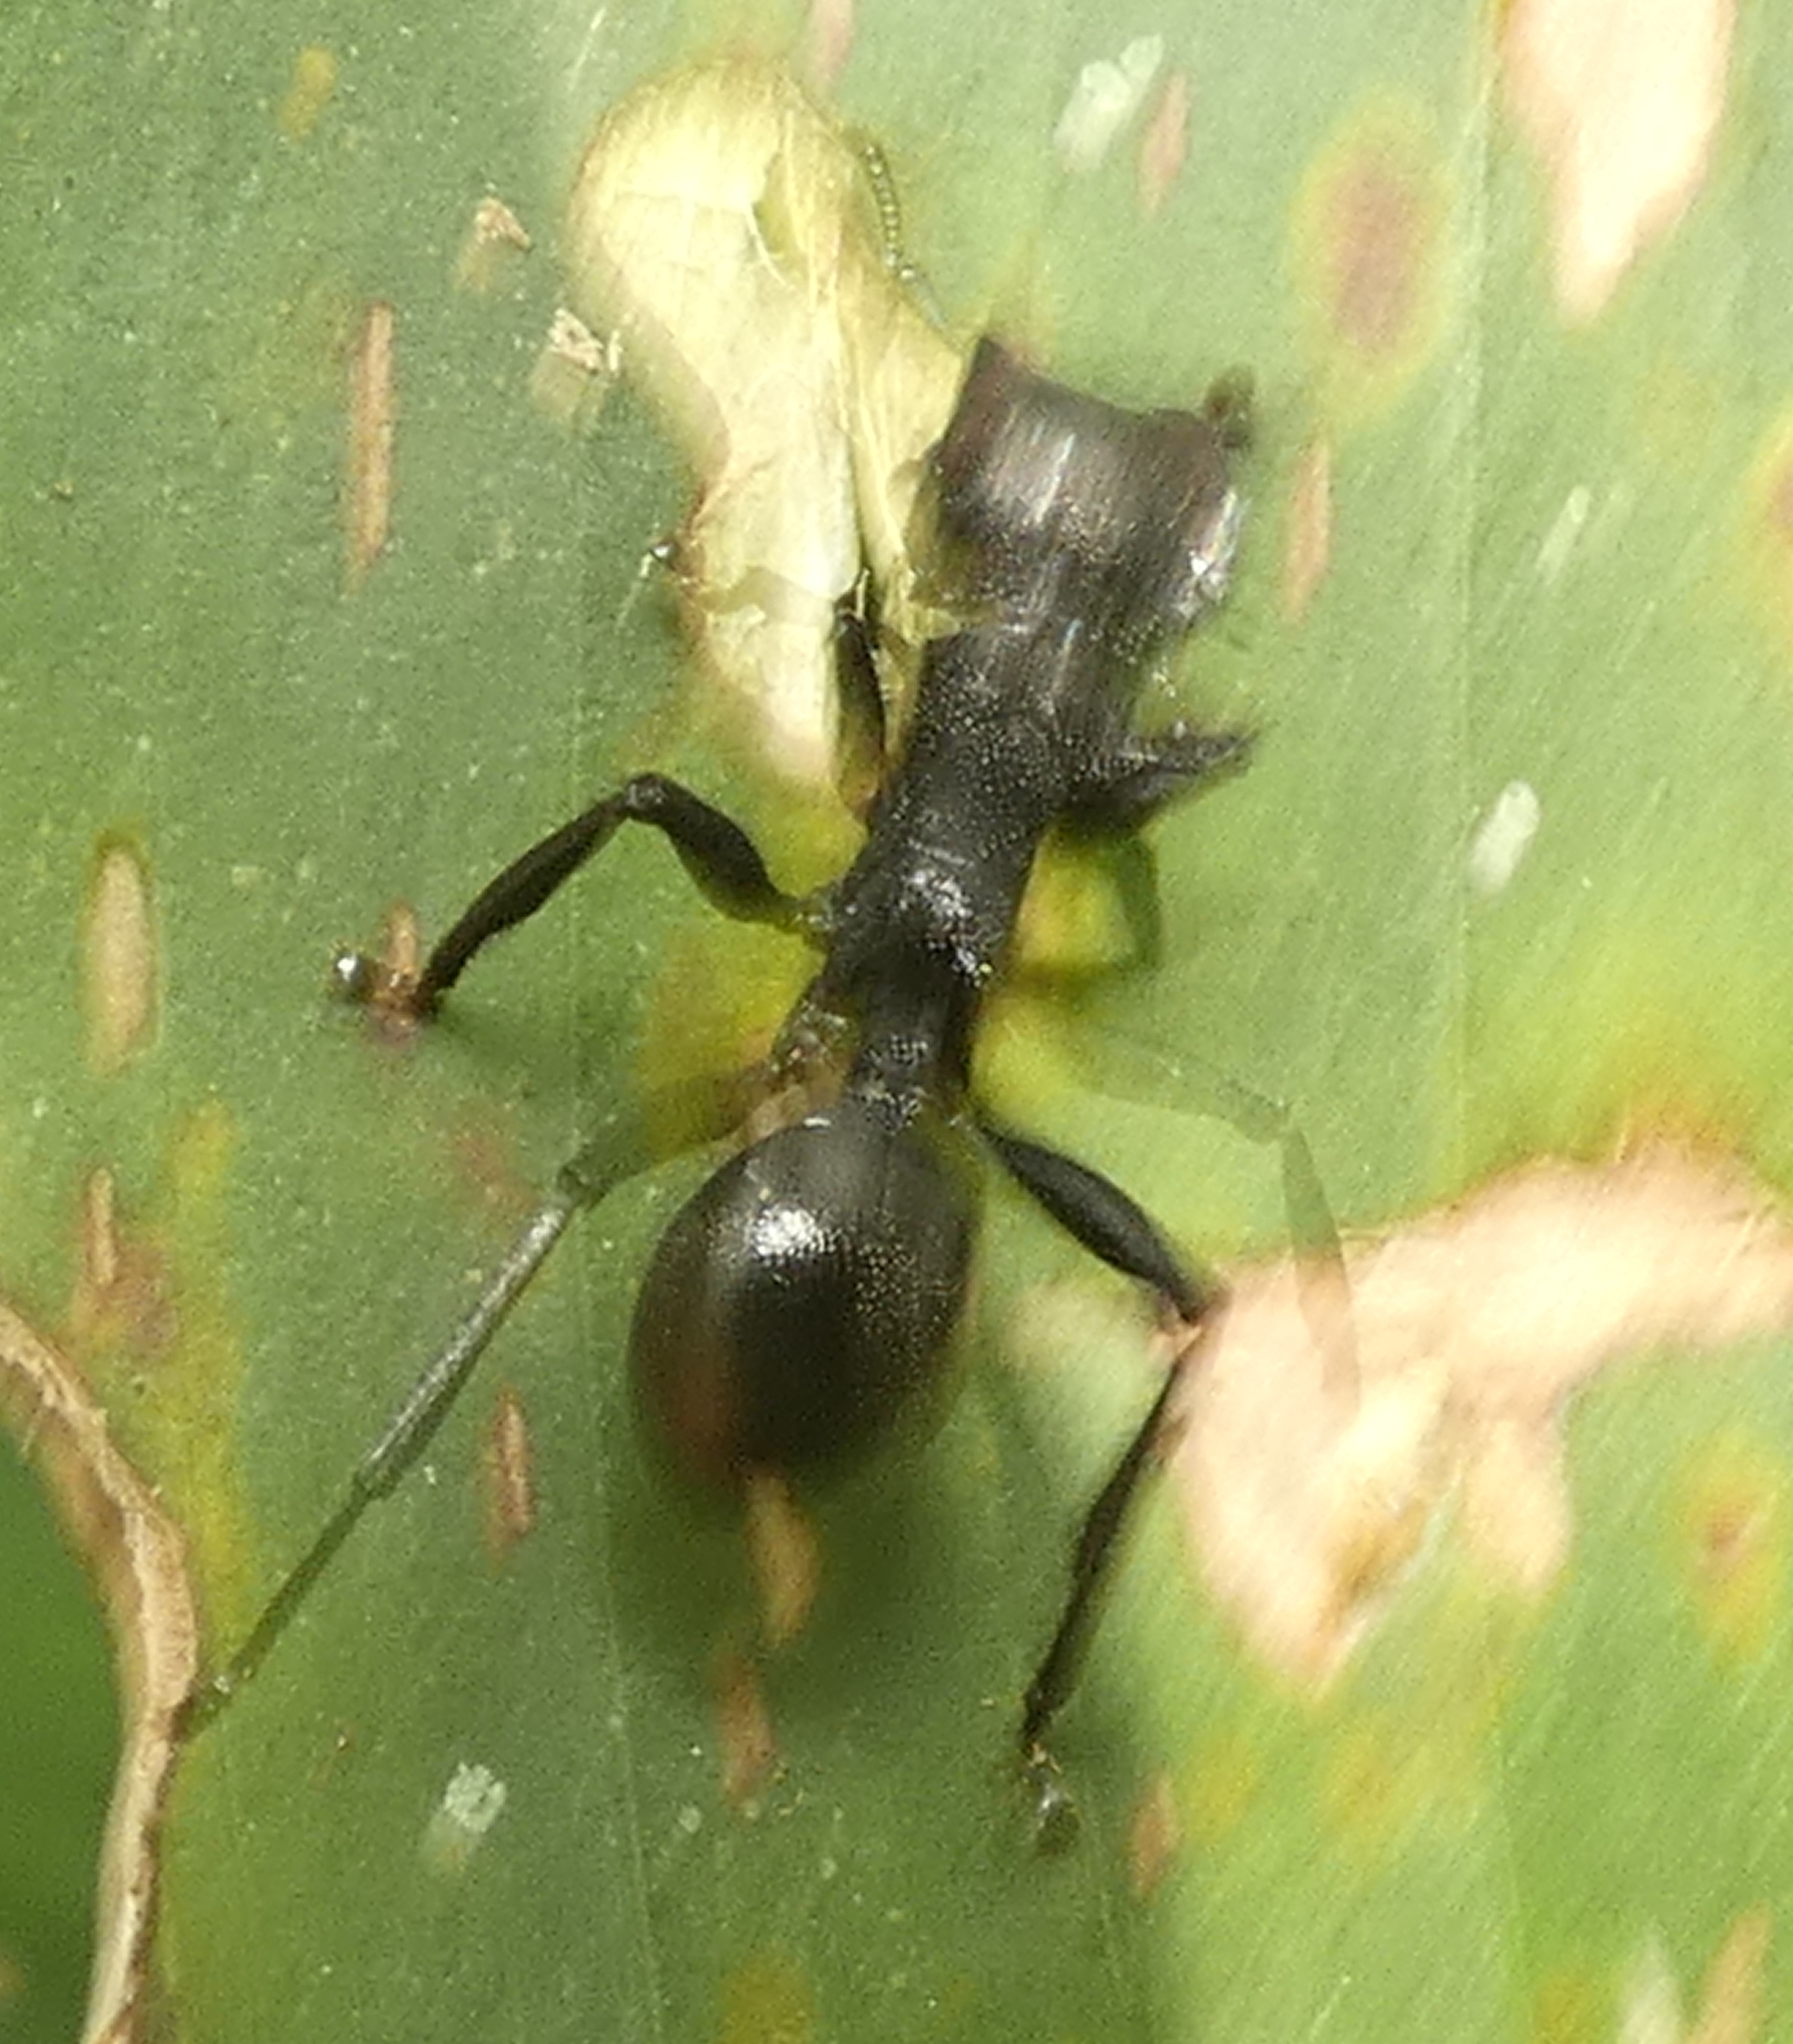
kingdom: Animalia
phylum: Arthropoda
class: Insecta
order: Hymenoptera
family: Formicidae
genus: Cephalotes
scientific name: Cephalotes atratus
